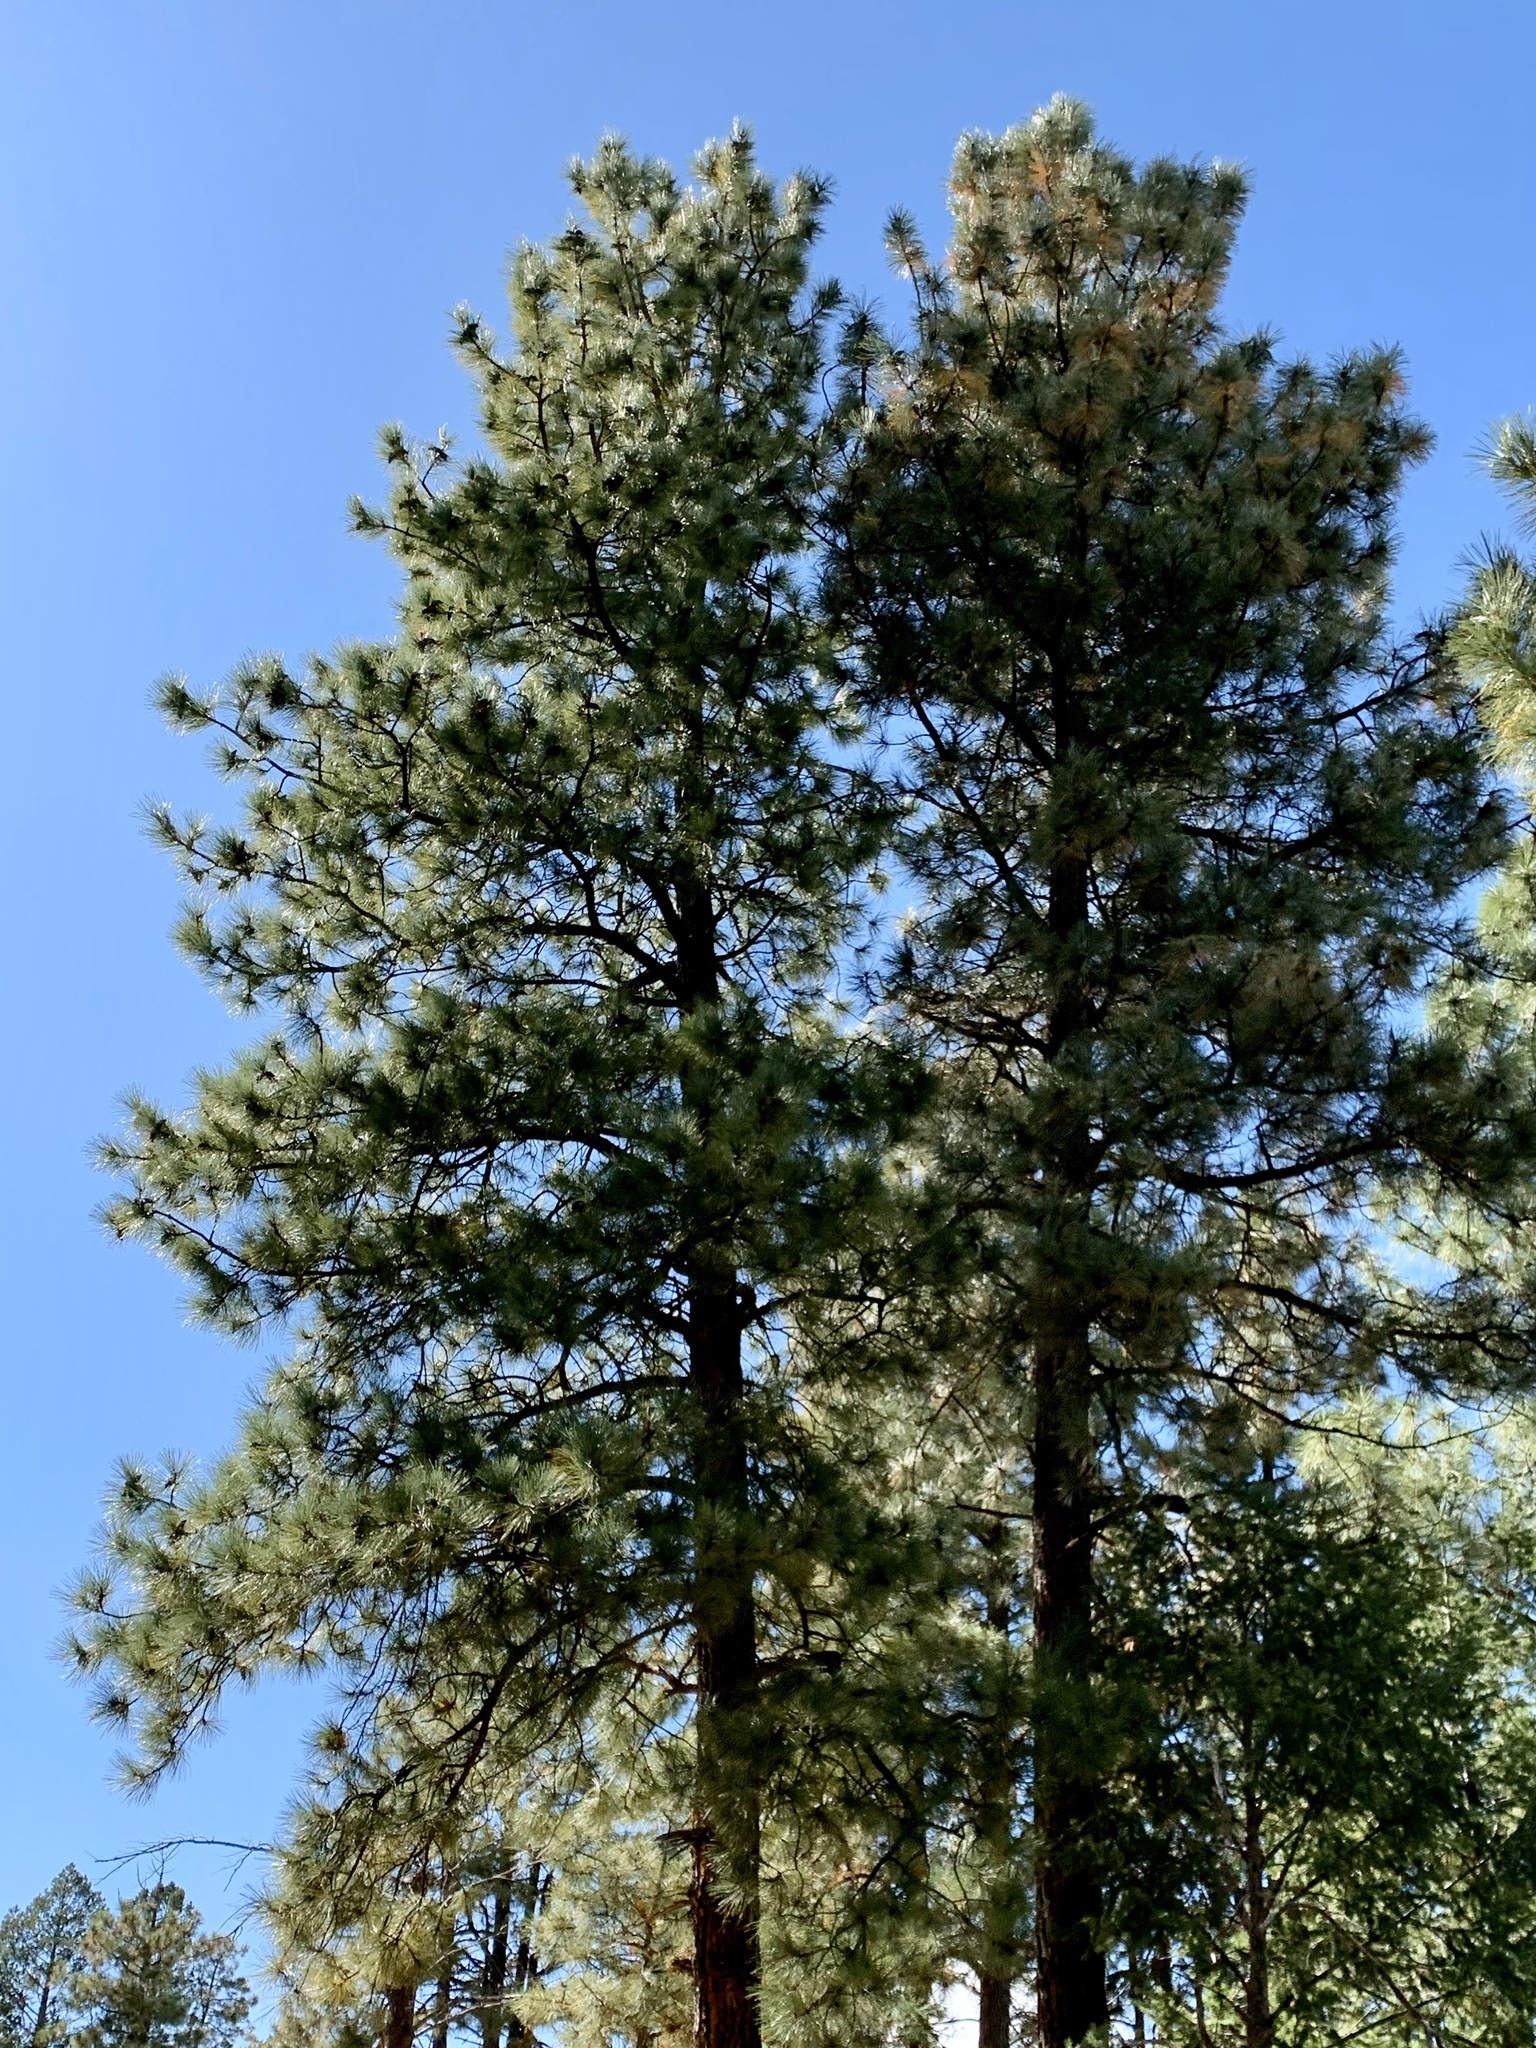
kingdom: Plantae
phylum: Tracheophyta
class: Pinopsida
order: Pinales
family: Pinaceae
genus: Pinus
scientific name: Pinus ponderosa
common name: Western yellow-pine
